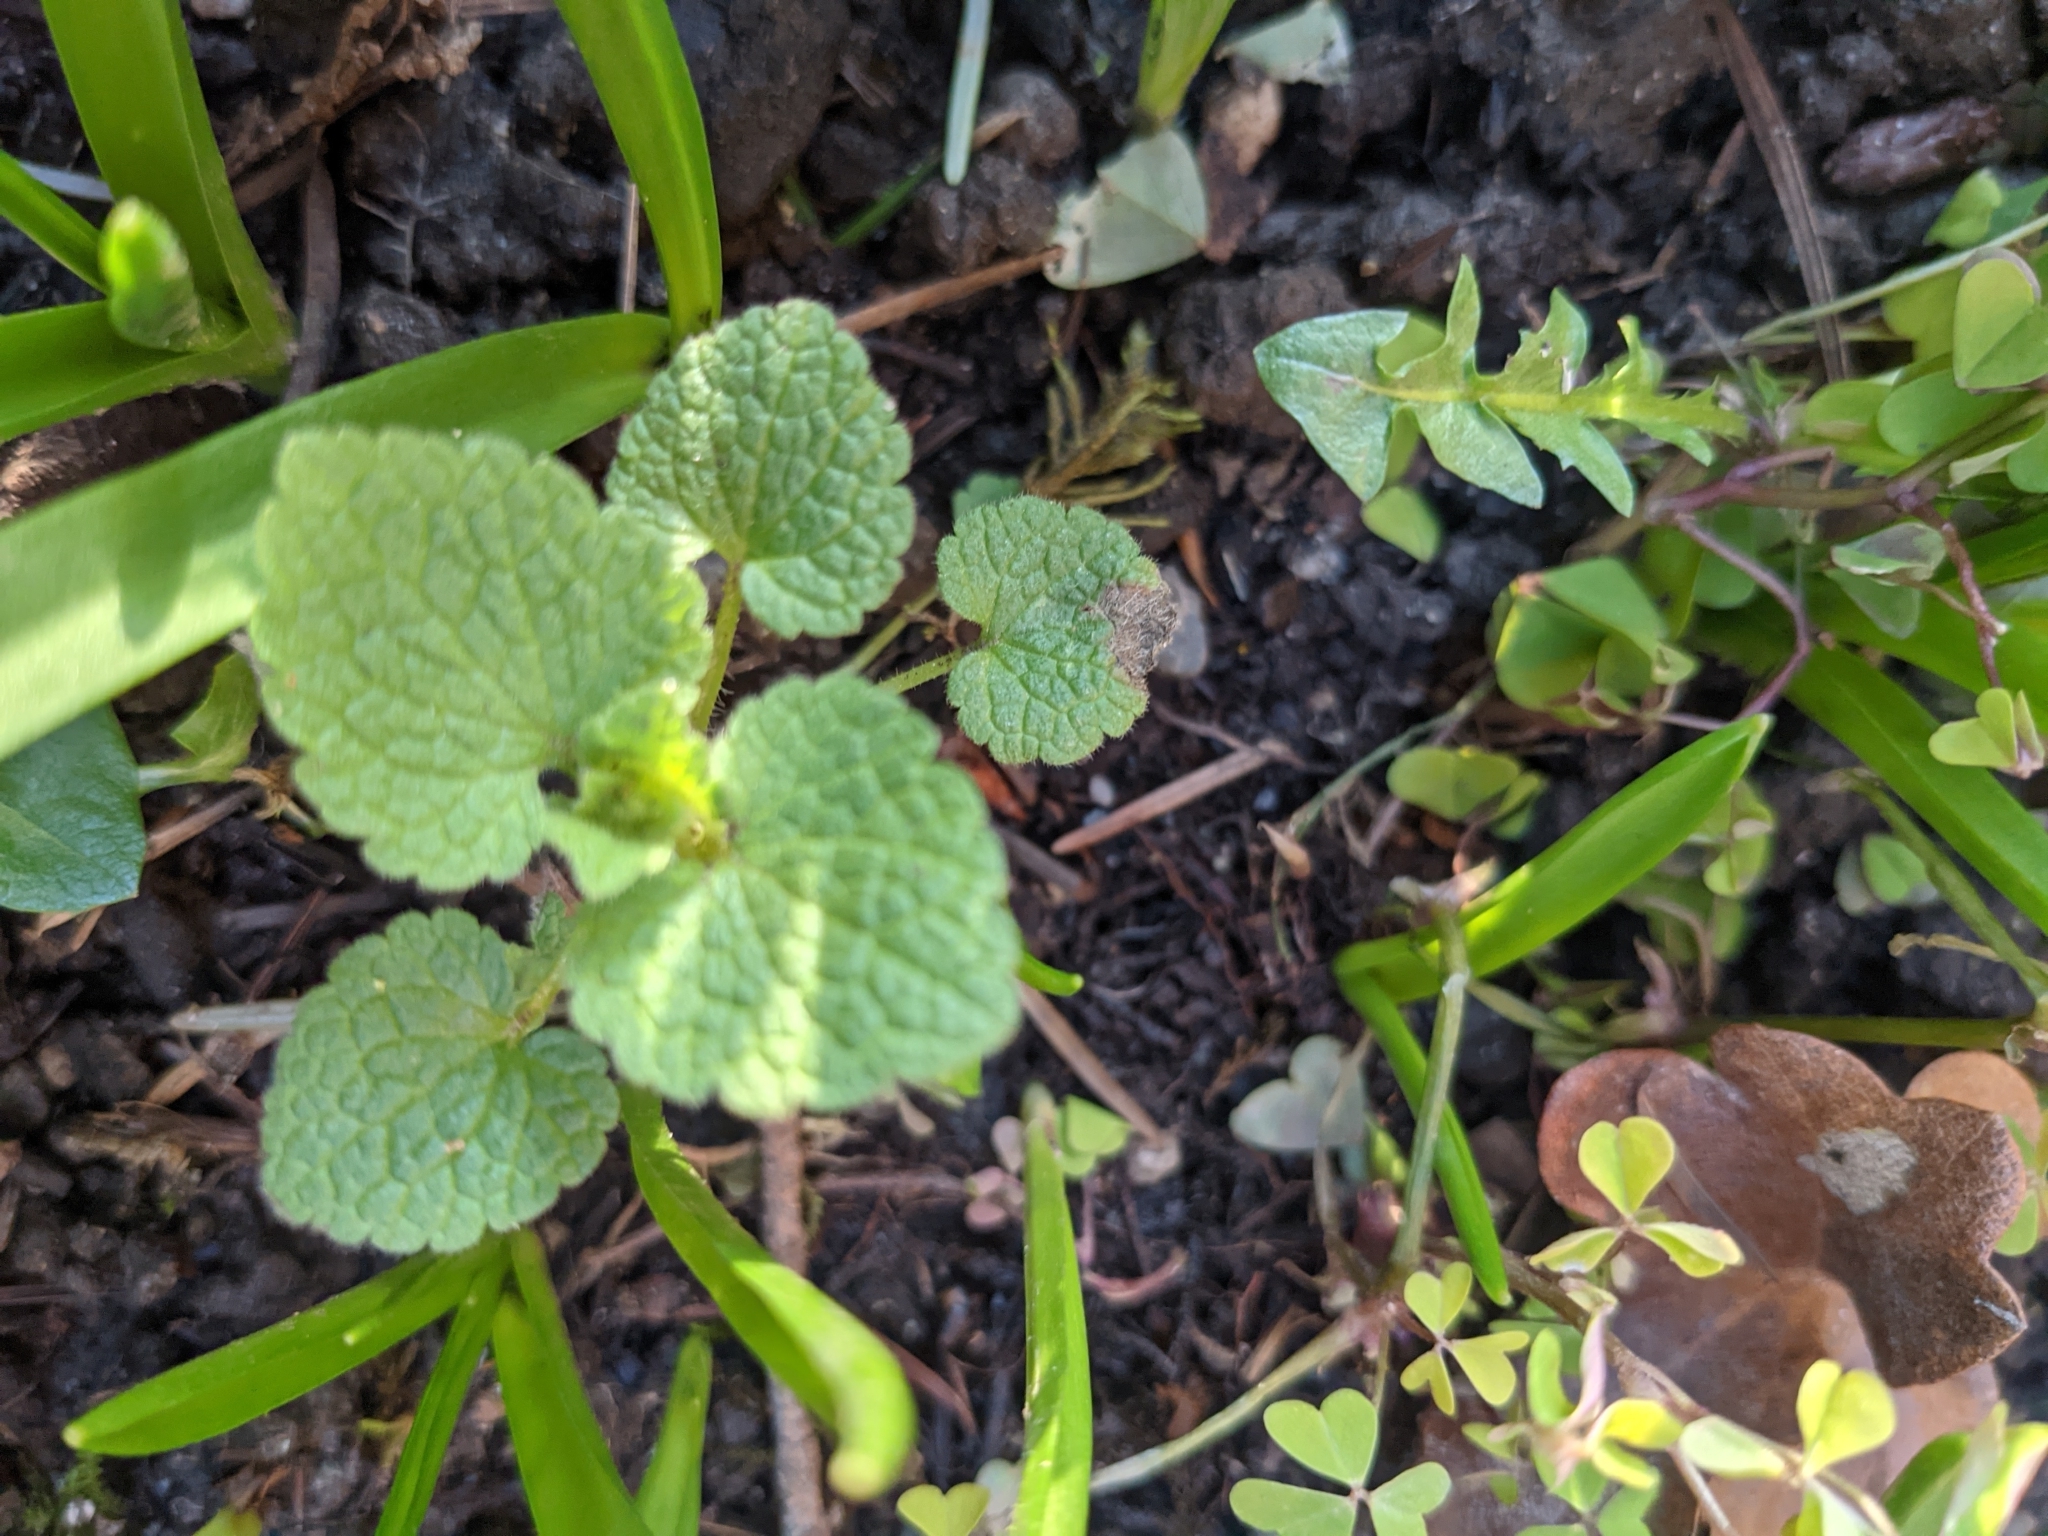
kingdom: Plantae
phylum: Tracheophyta
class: Magnoliopsida
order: Lamiales
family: Lamiaceae
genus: Lamium
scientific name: Lamium purpureum
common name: Red dead-nettle
